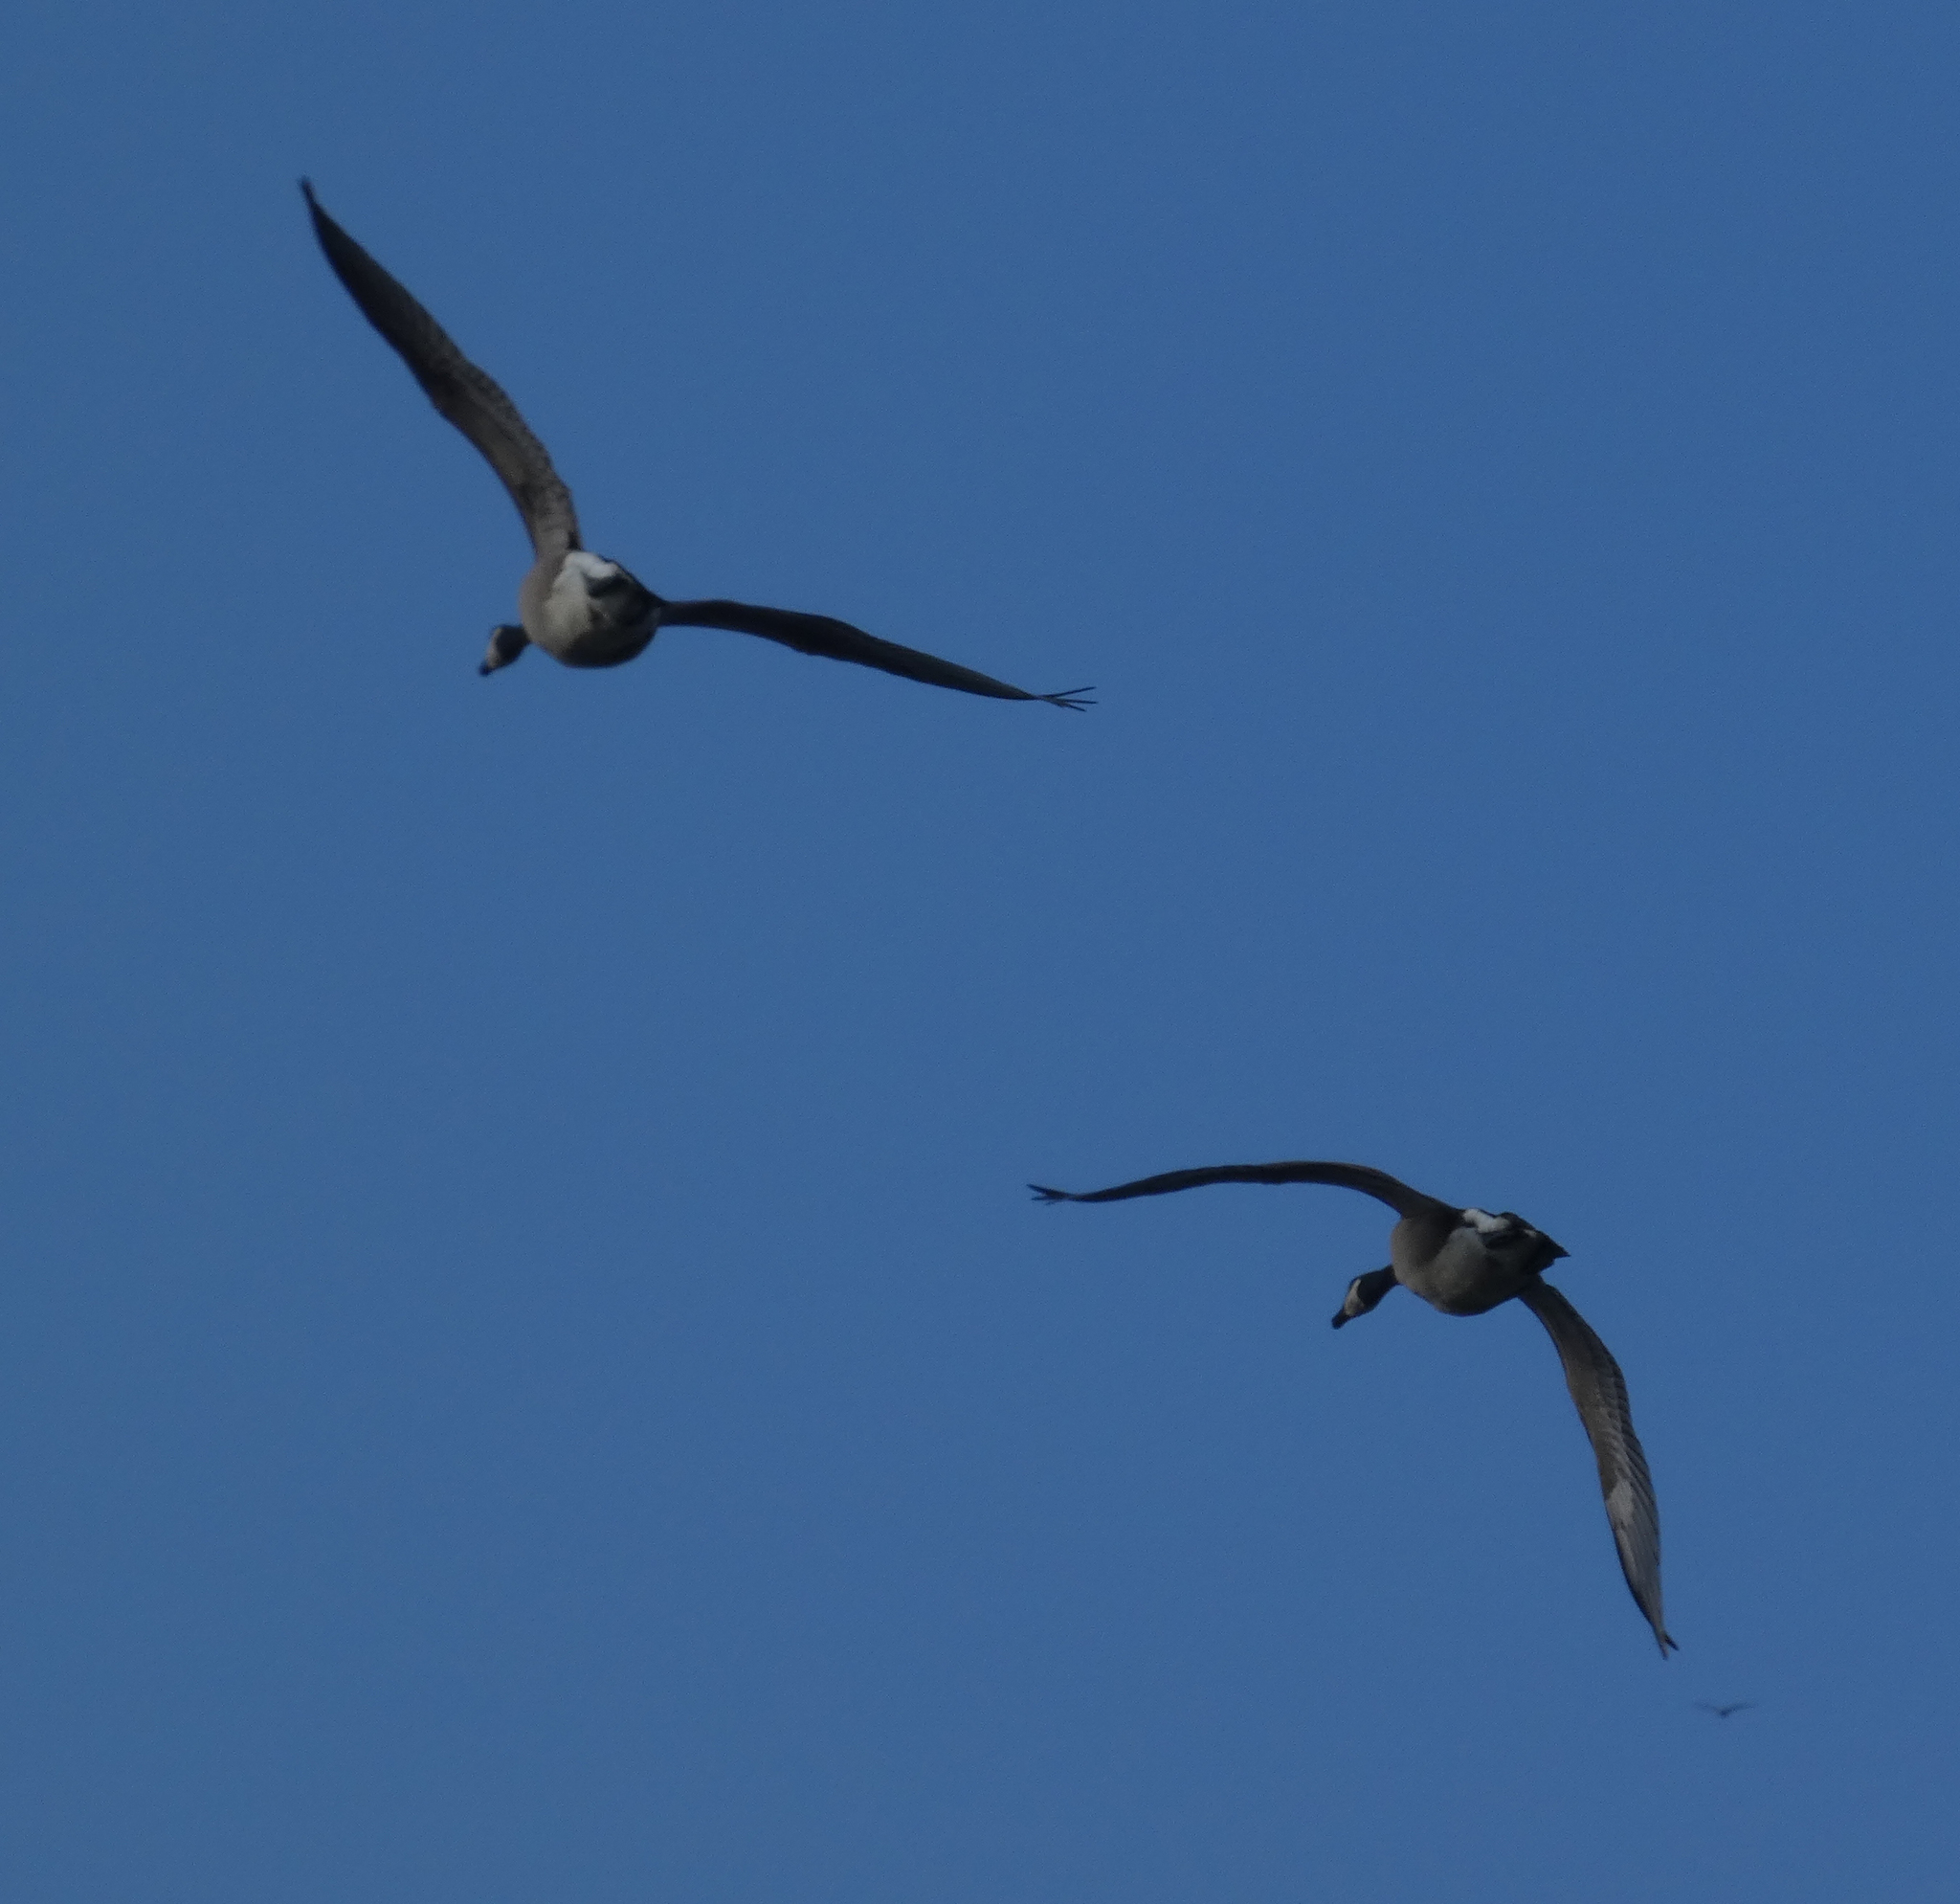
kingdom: Animalia
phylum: Chordata
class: Aves
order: Anseriformes
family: Anatidae
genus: Branta
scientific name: Branta canadensis
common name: Canada goose
